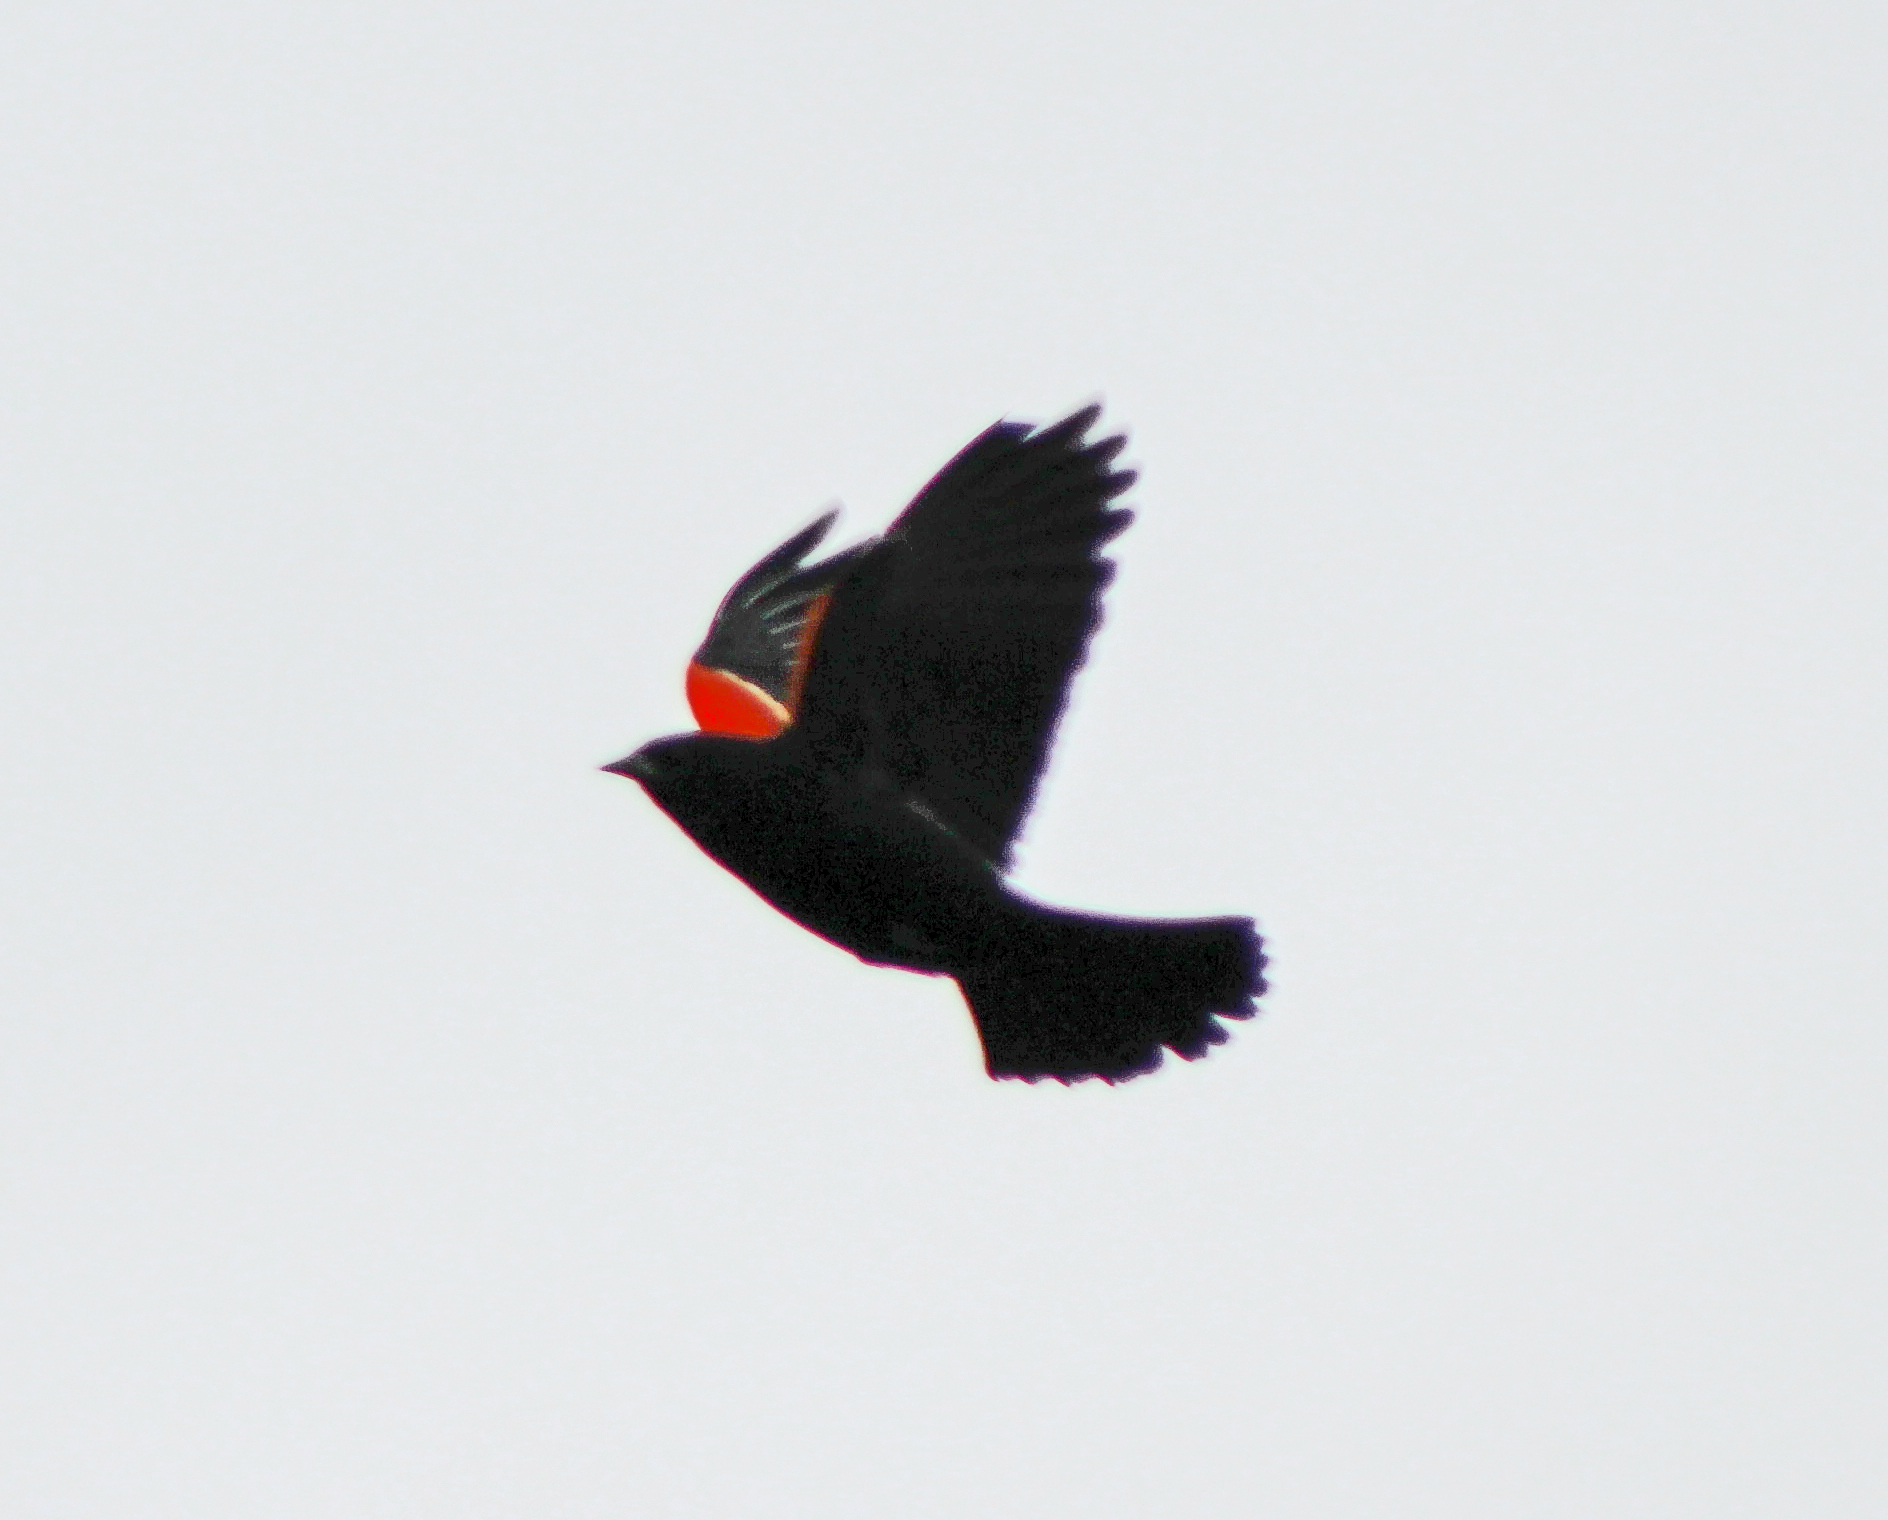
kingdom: Animalia
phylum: Chordata
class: Aves
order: Passeriformes
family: Icteridae
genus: Agelaius
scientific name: Agelaius phoeniceus
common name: Red-winged blackbird
